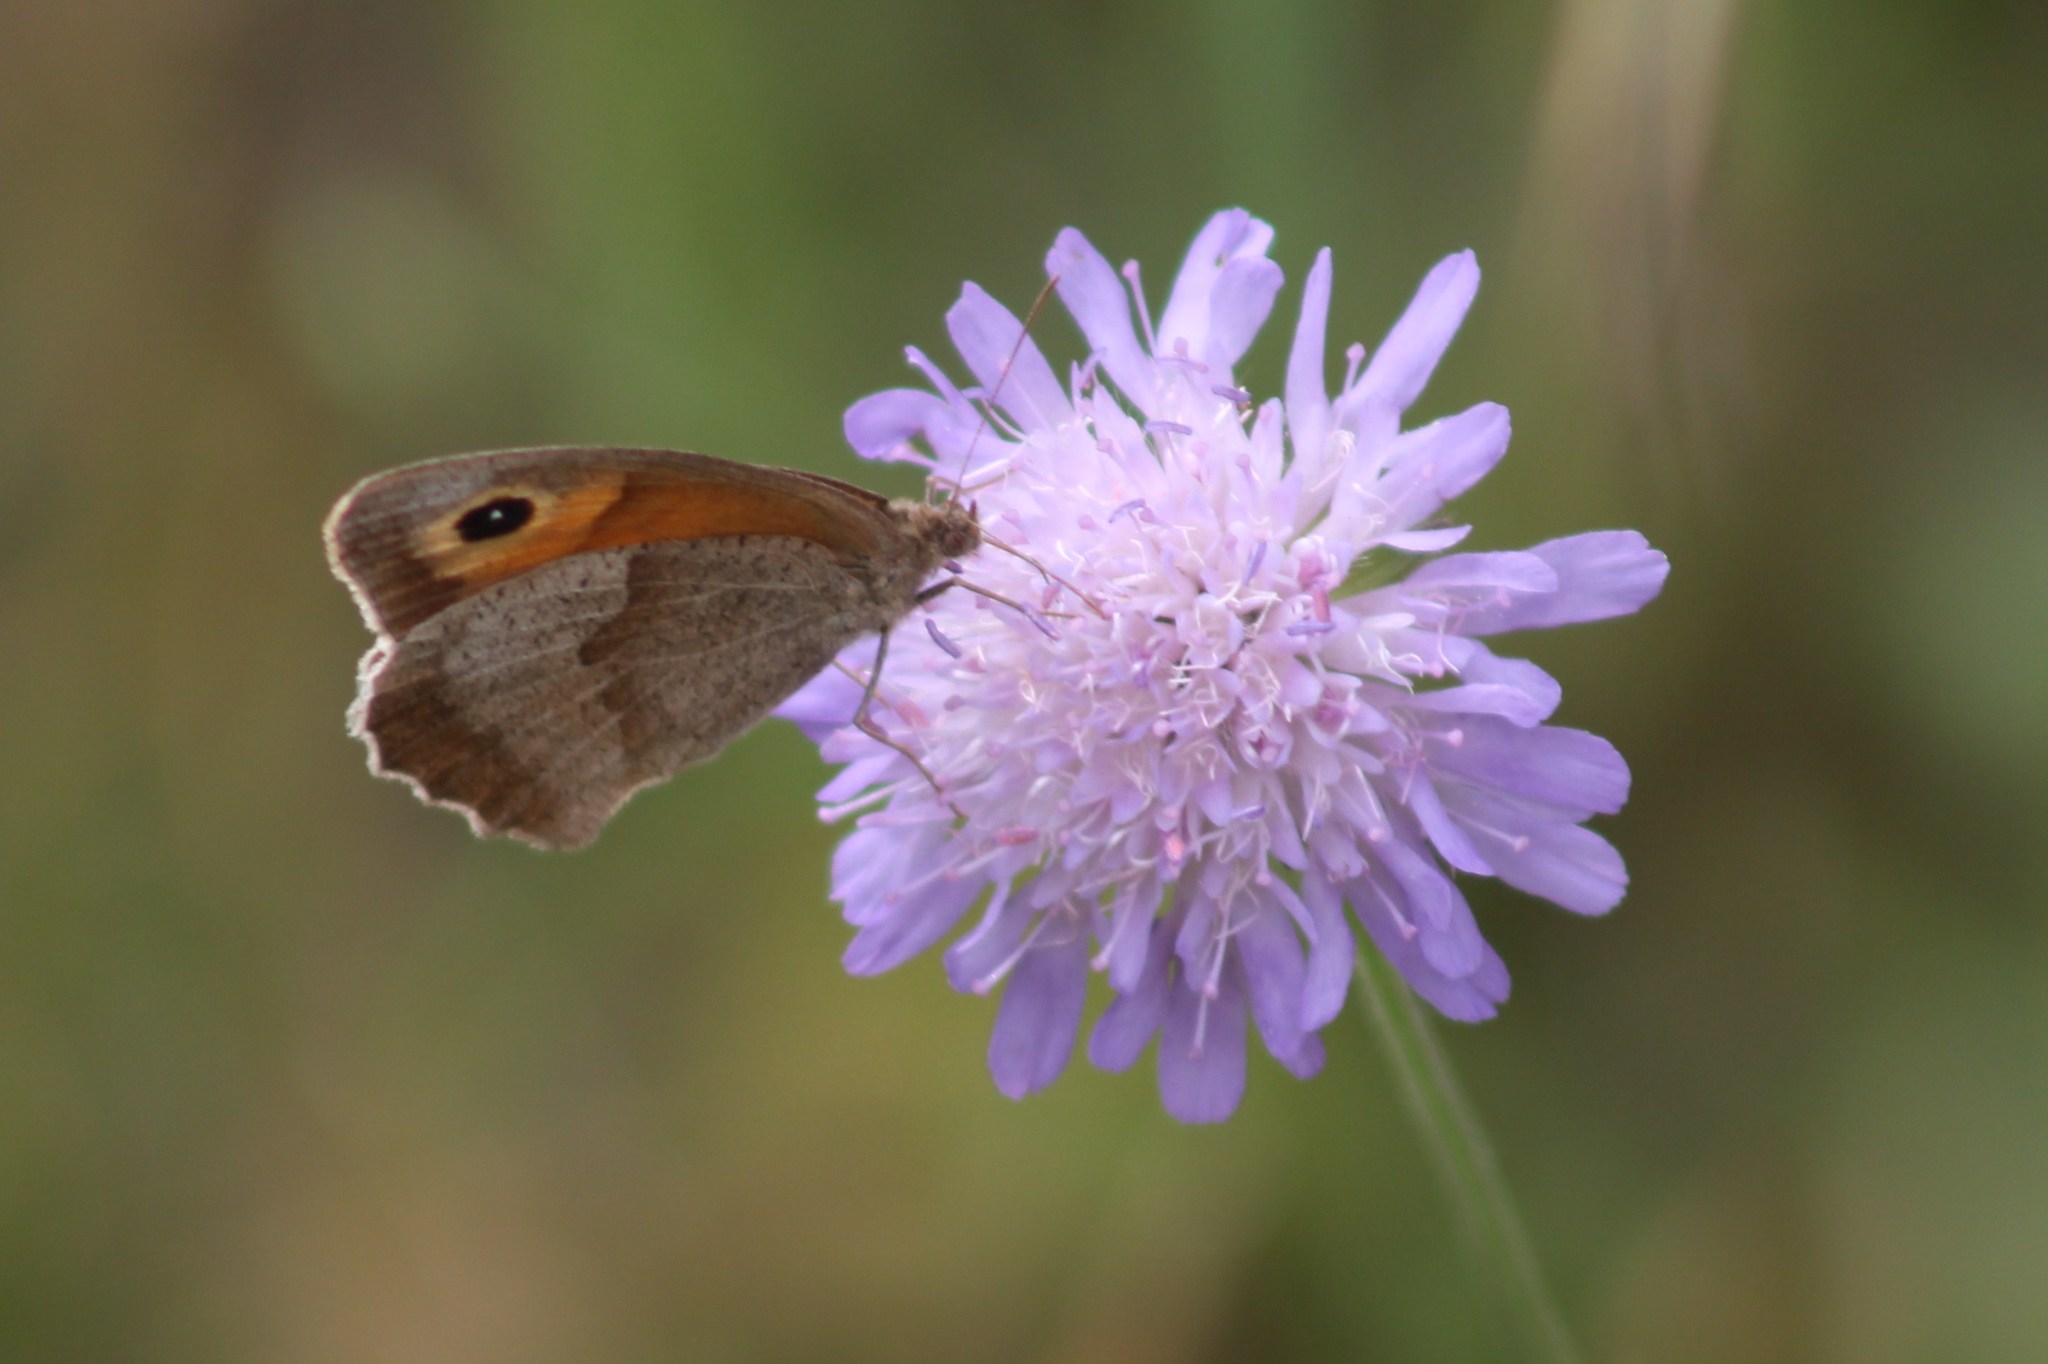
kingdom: Animalia
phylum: Arthropoda
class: Insecta
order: Lepidoptera
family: Nymphalidae
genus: Maniola
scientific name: Maniola jurtina
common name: Meadow brown
